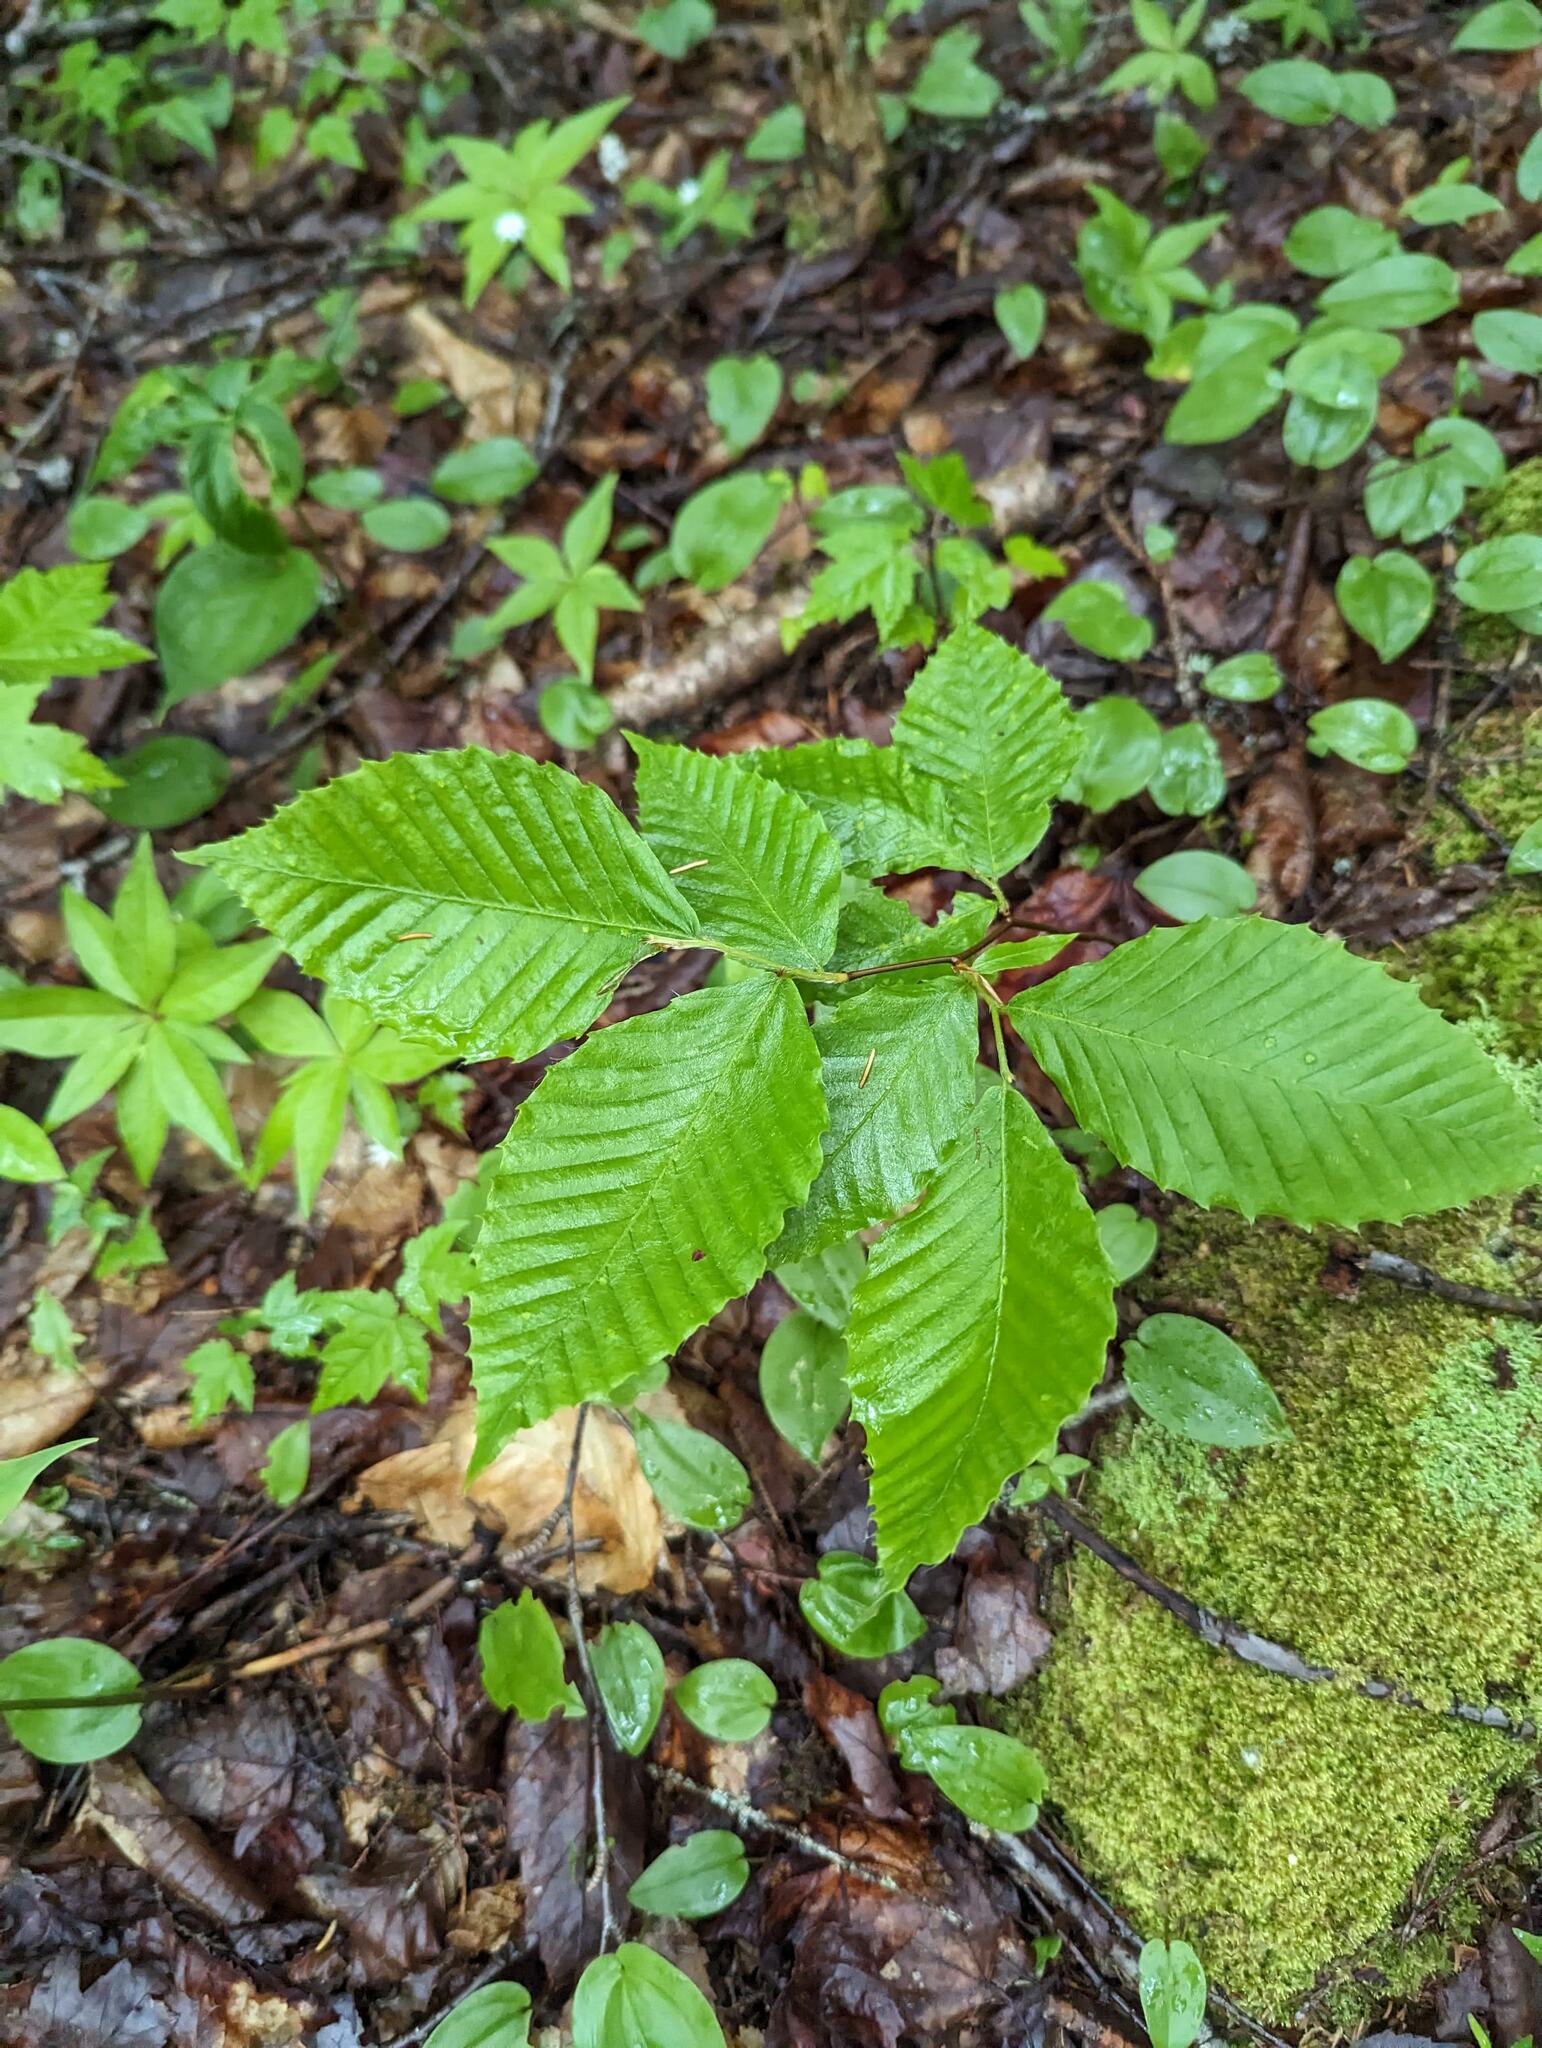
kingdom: Plantae
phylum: Tracheophyta
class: Magnoliopsida
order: Fagales
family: Fagaceae
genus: Fagus
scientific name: Fagus grandifolia
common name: American beech
